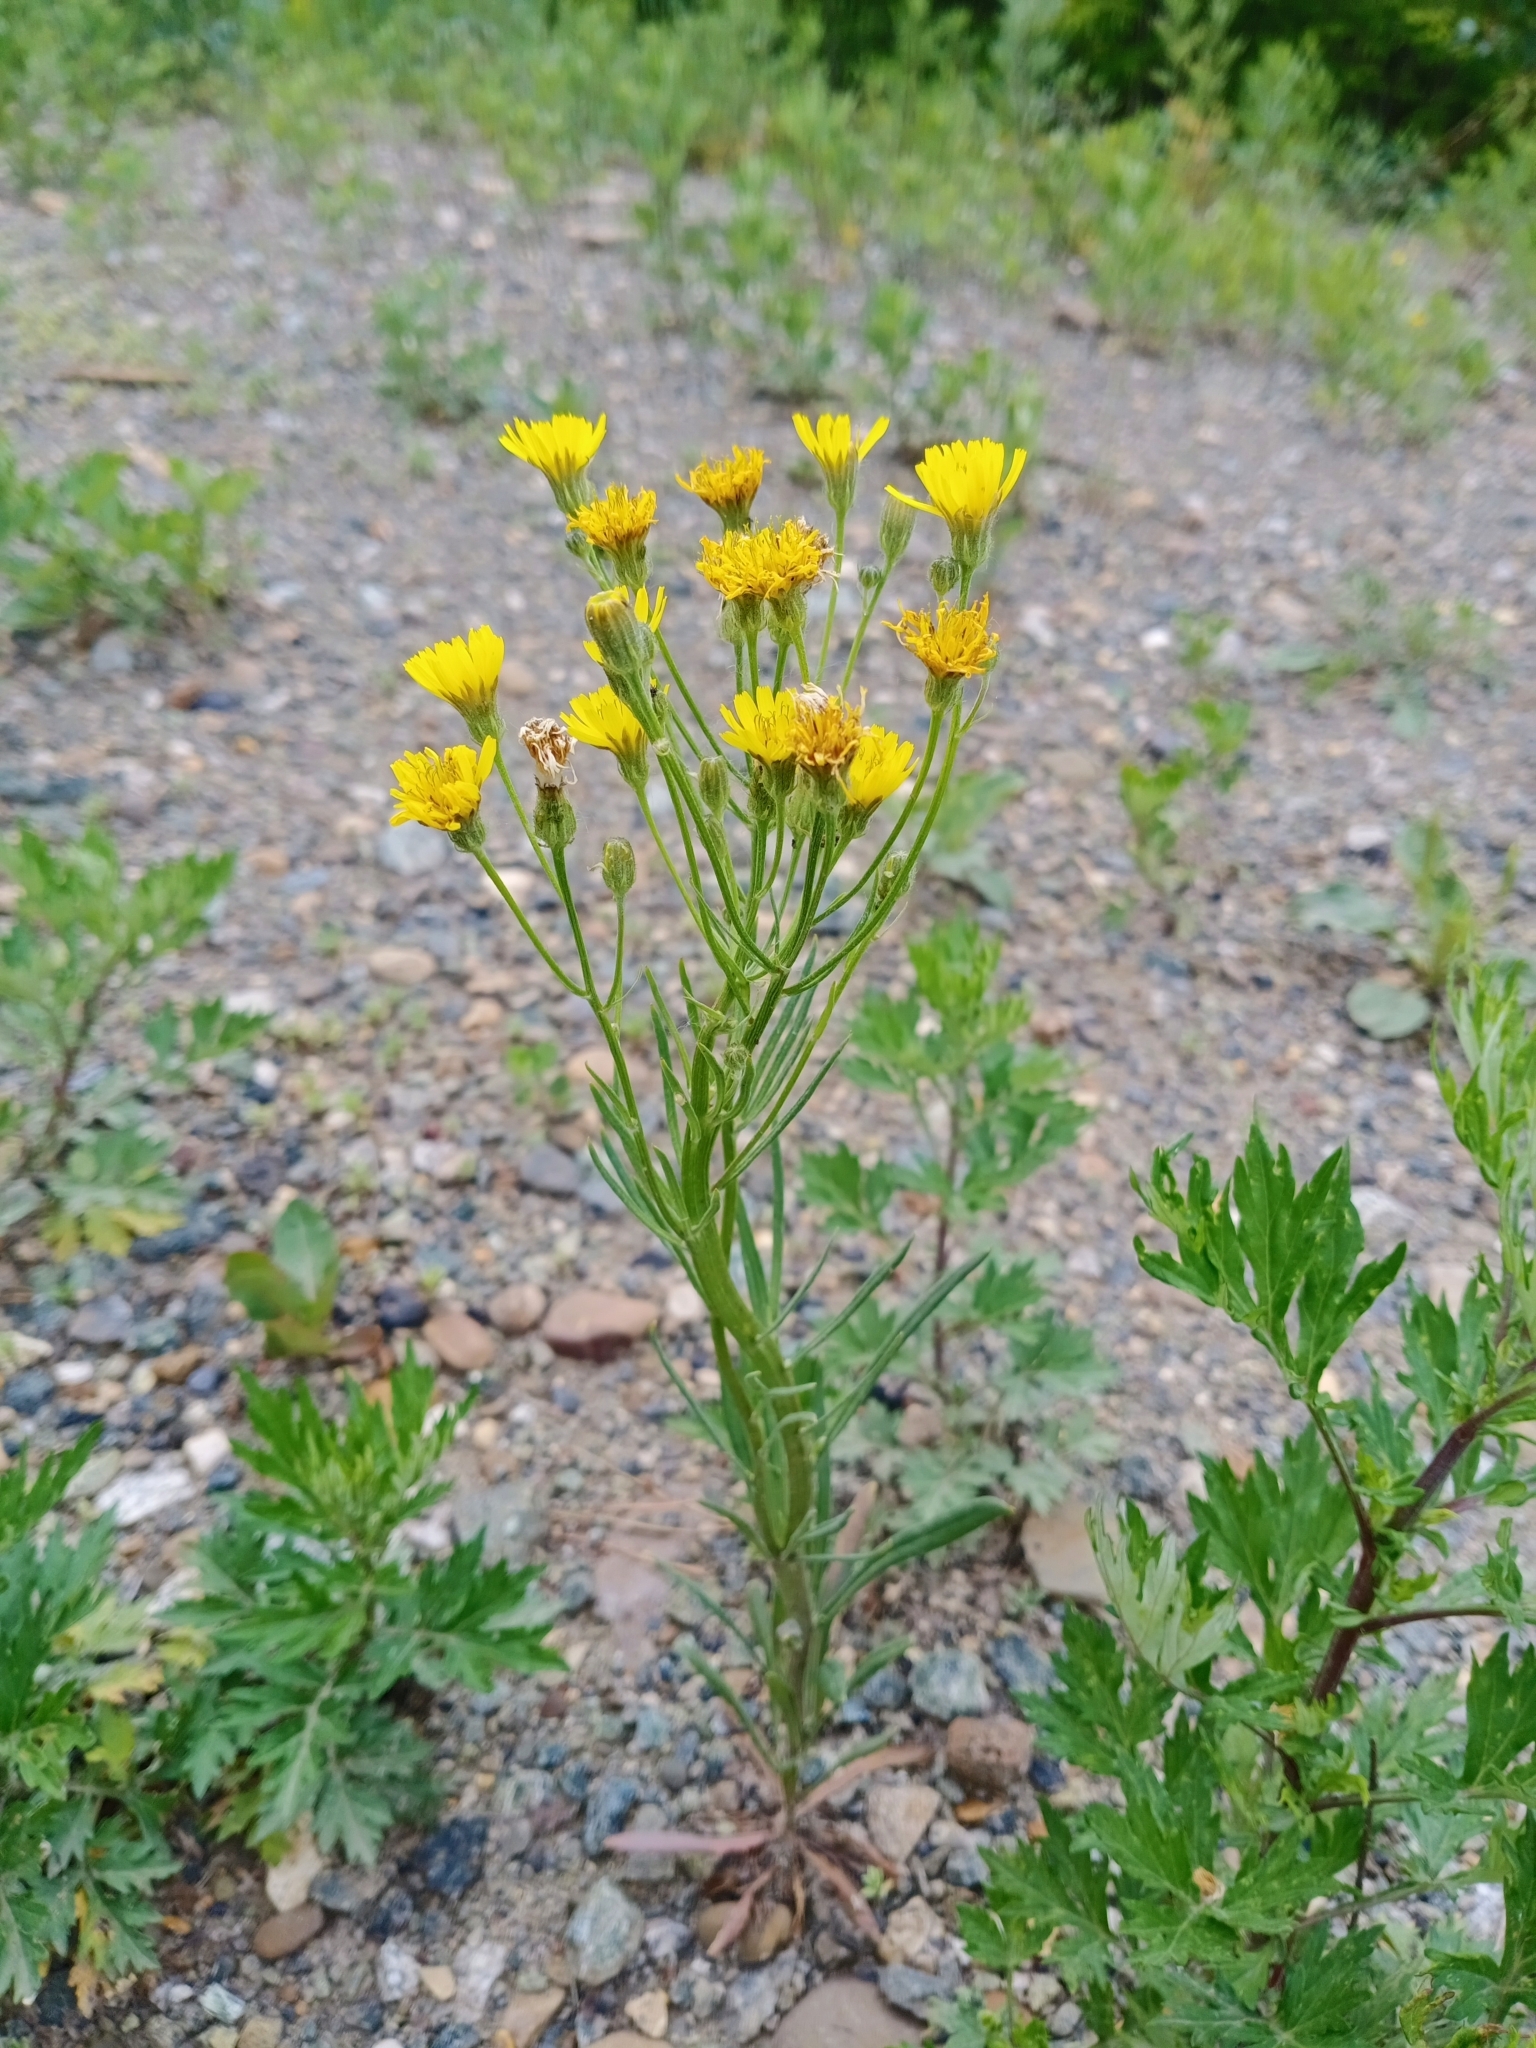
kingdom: Plantae
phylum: Tracheophyta
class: Magnoliopsida
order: Asterales
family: Asteraceae
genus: Crepis
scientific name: Crepis tectorum
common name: Narrow-leaved hawk's-beard
